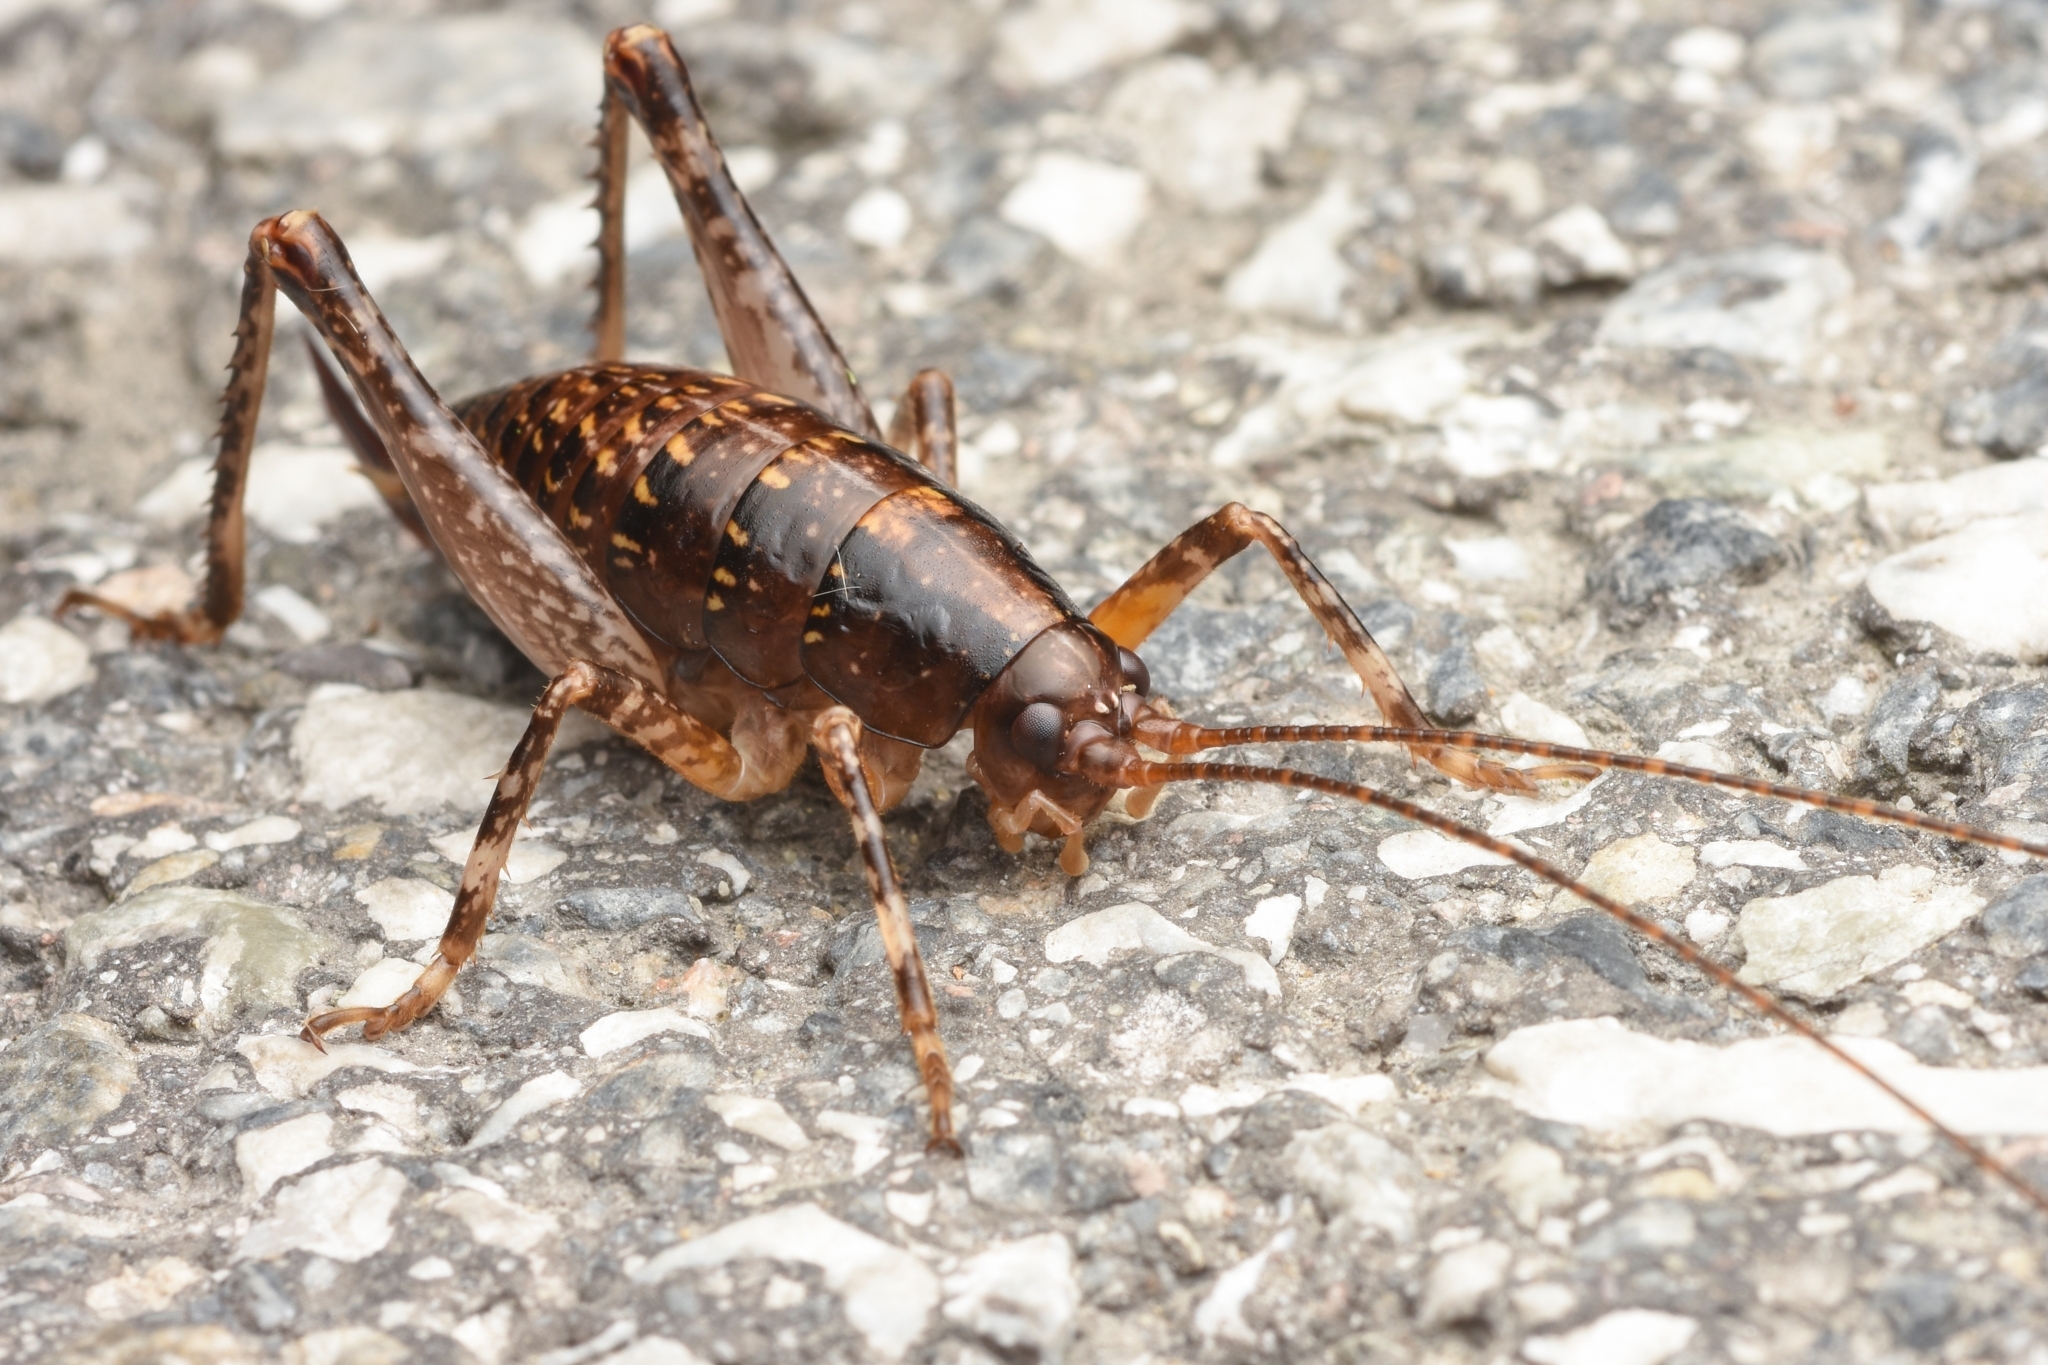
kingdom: Animalia
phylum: Arthropoda
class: Insecta
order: Orthoptera
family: Rhaphidophoridae
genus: Anoplophilus
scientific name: Anoplophilus koreanus
